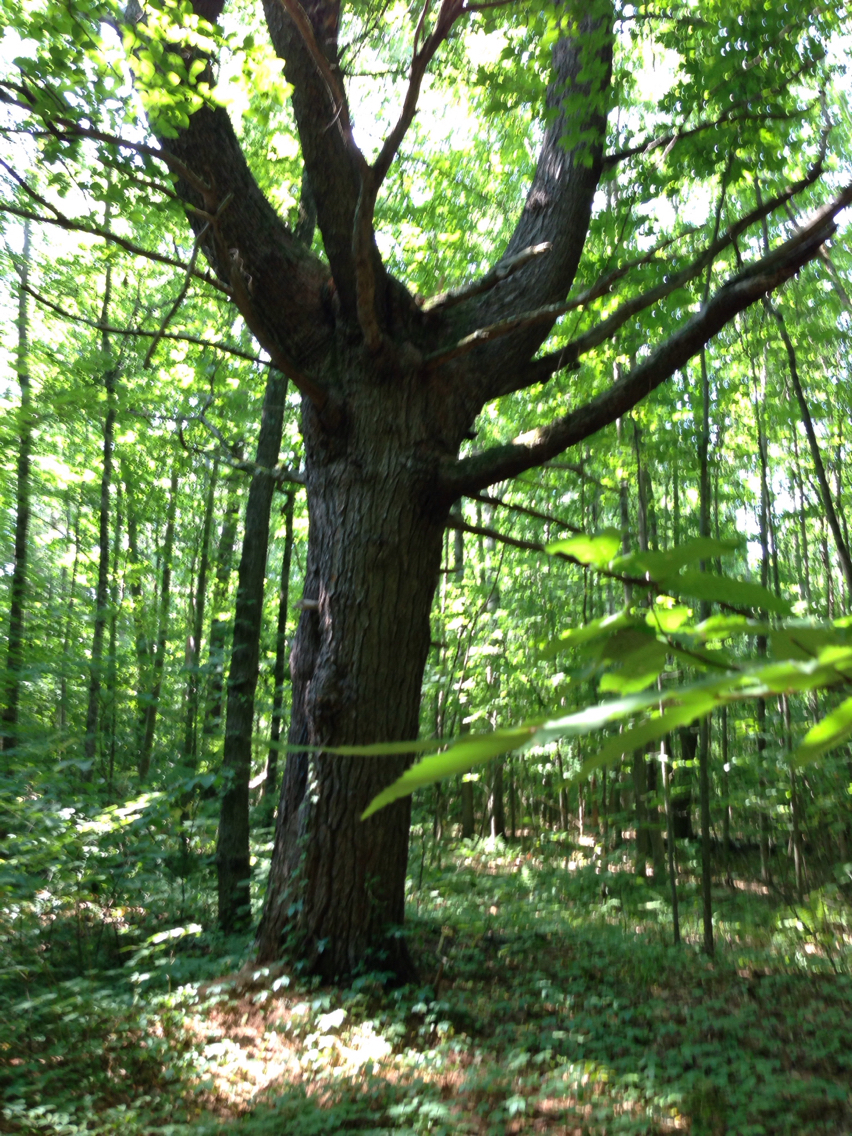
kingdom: Plantae
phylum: Tracheophyta
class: Pinopsida
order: Pinales
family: Pinaceae
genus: Pinus
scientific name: Pinus strobus
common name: Weymouth pine
